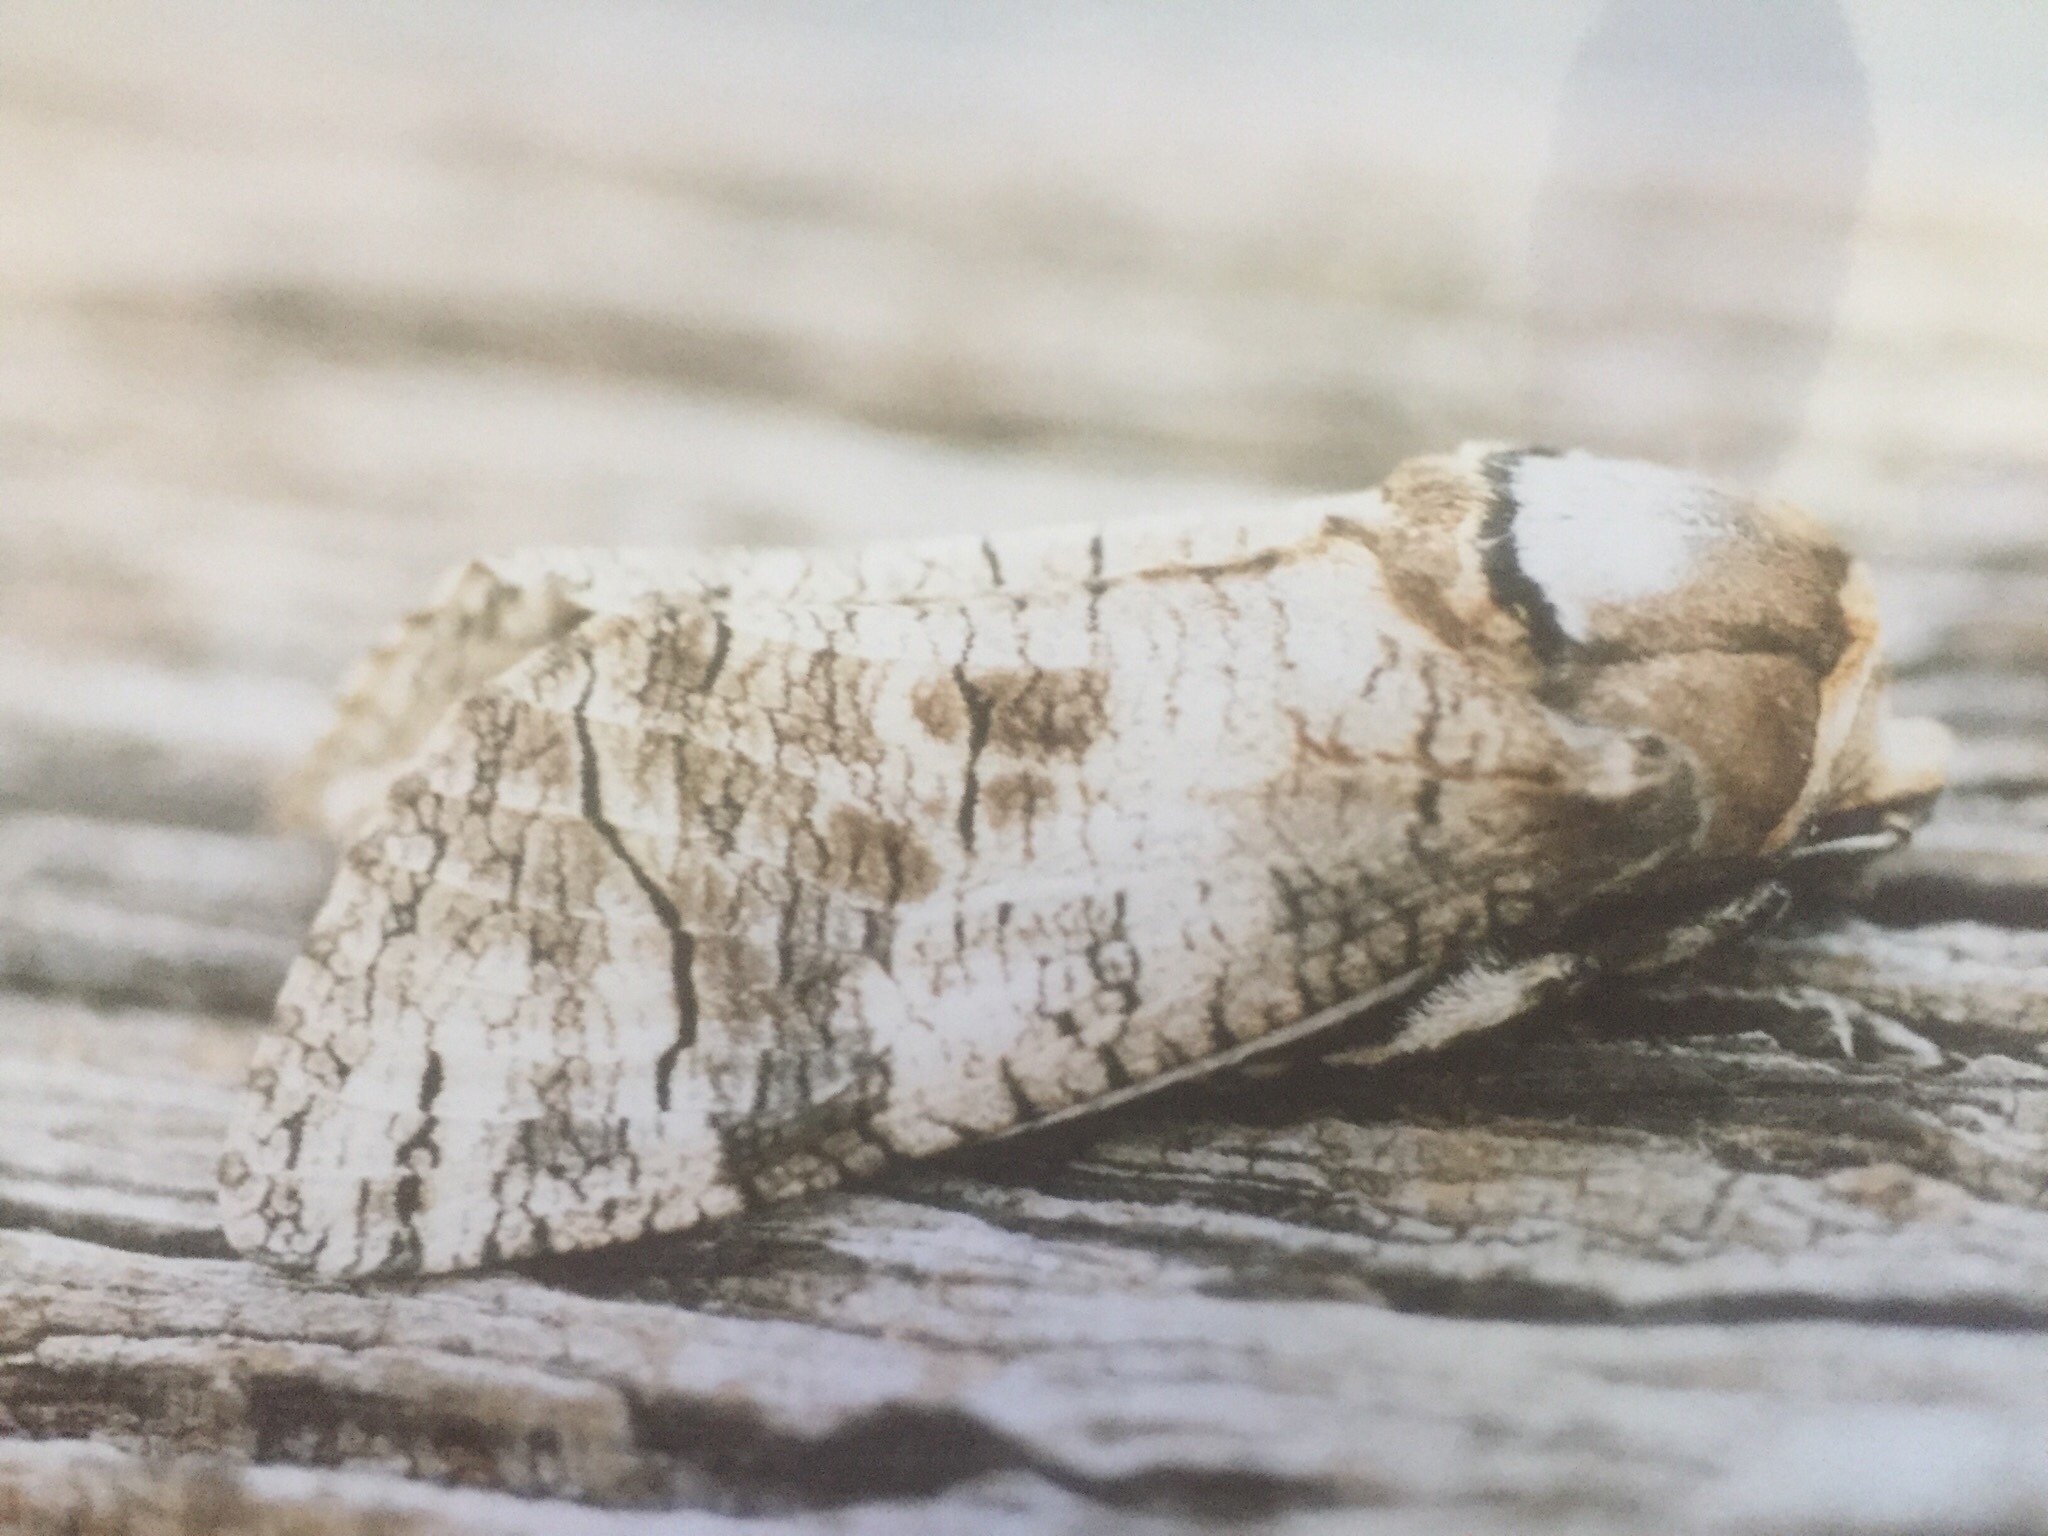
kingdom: Animalia
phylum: Arthropoda
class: Insecta
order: Lepidoptera
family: Cossidae
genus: Cossus
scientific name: Cossus cossus
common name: Goat moth
